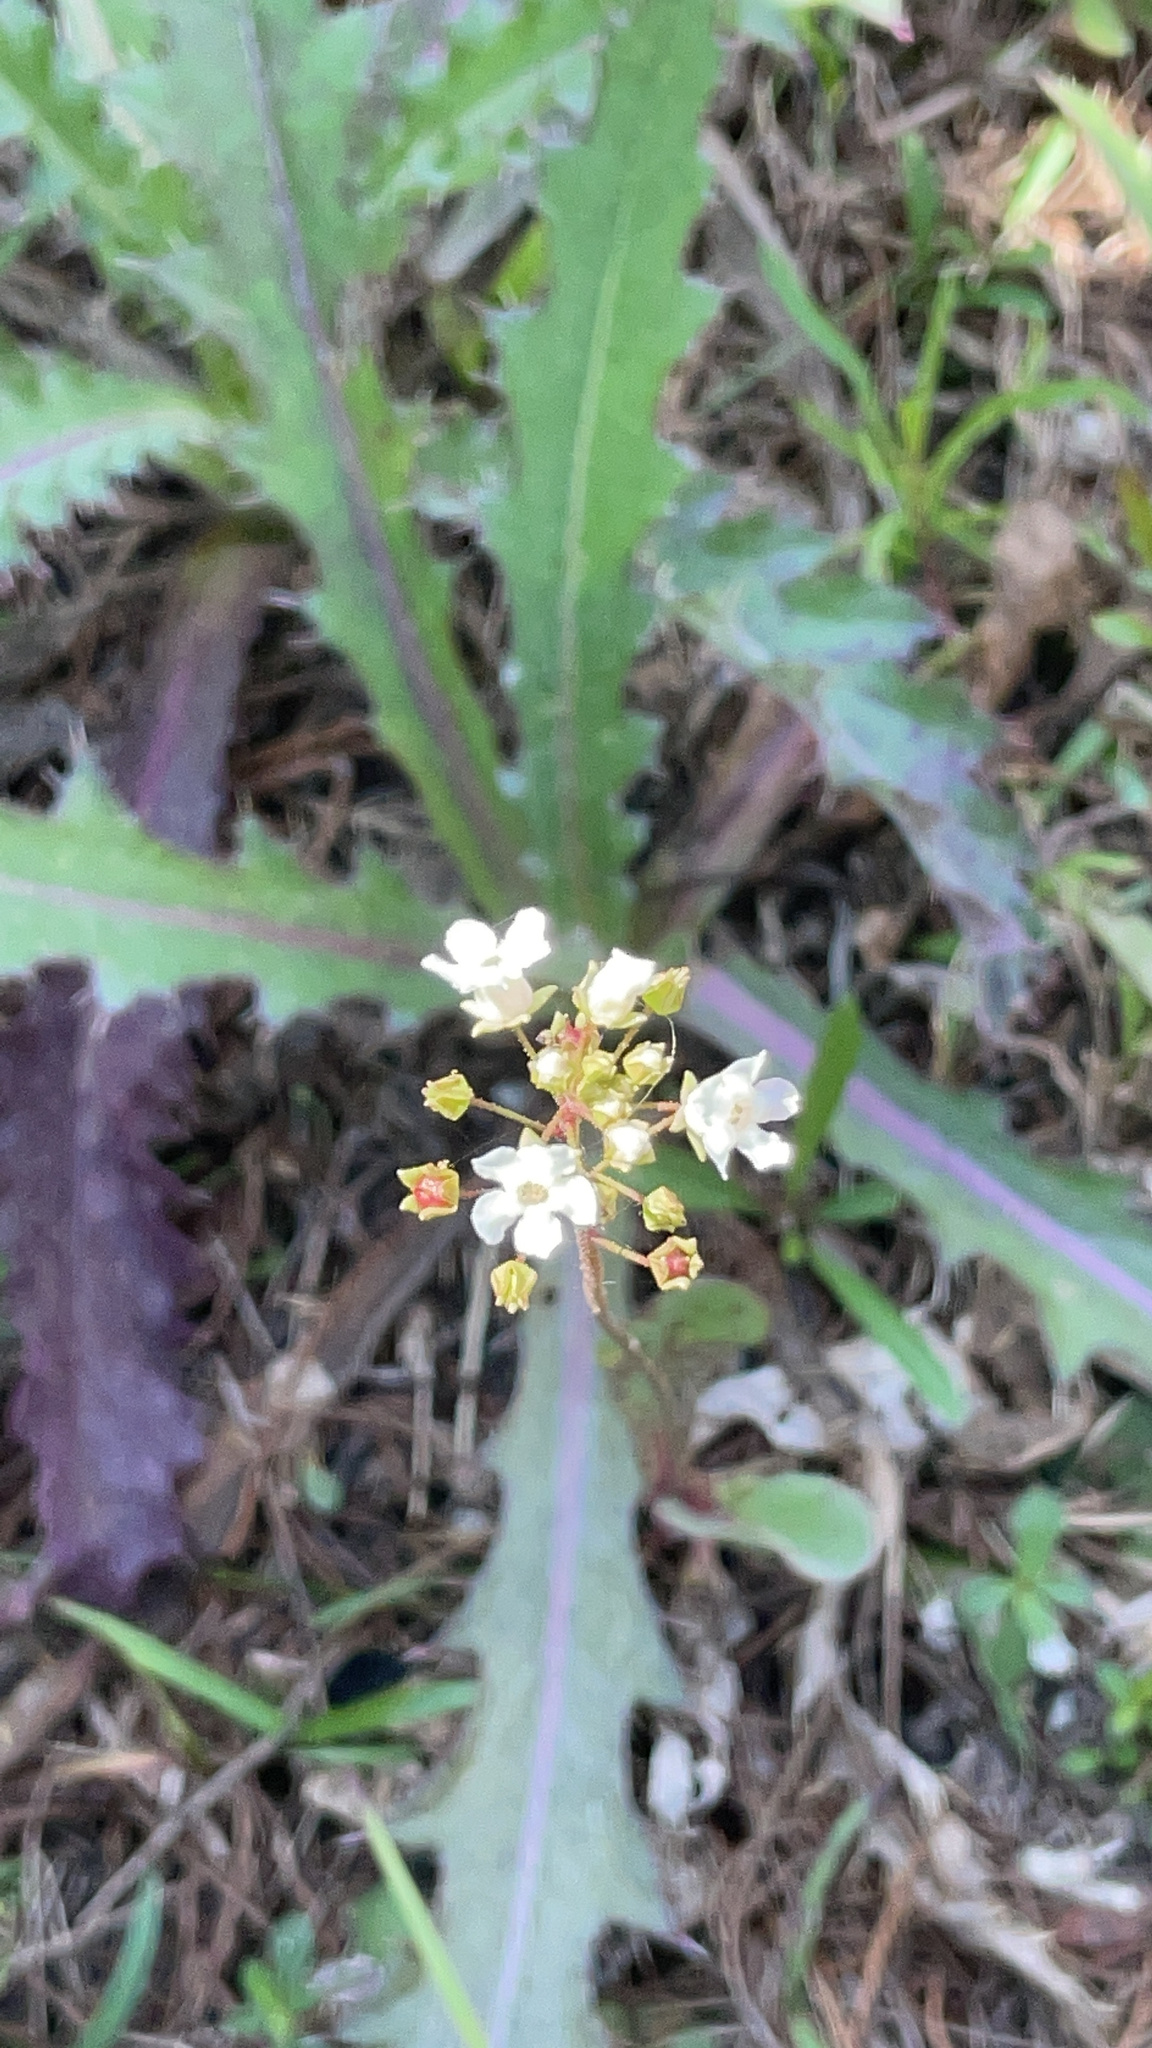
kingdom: Plantae
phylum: Tracheophyta
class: Magnoliopsida
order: Ericales
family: Primulaceae
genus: Samolus
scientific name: Samolus ebracteatus
